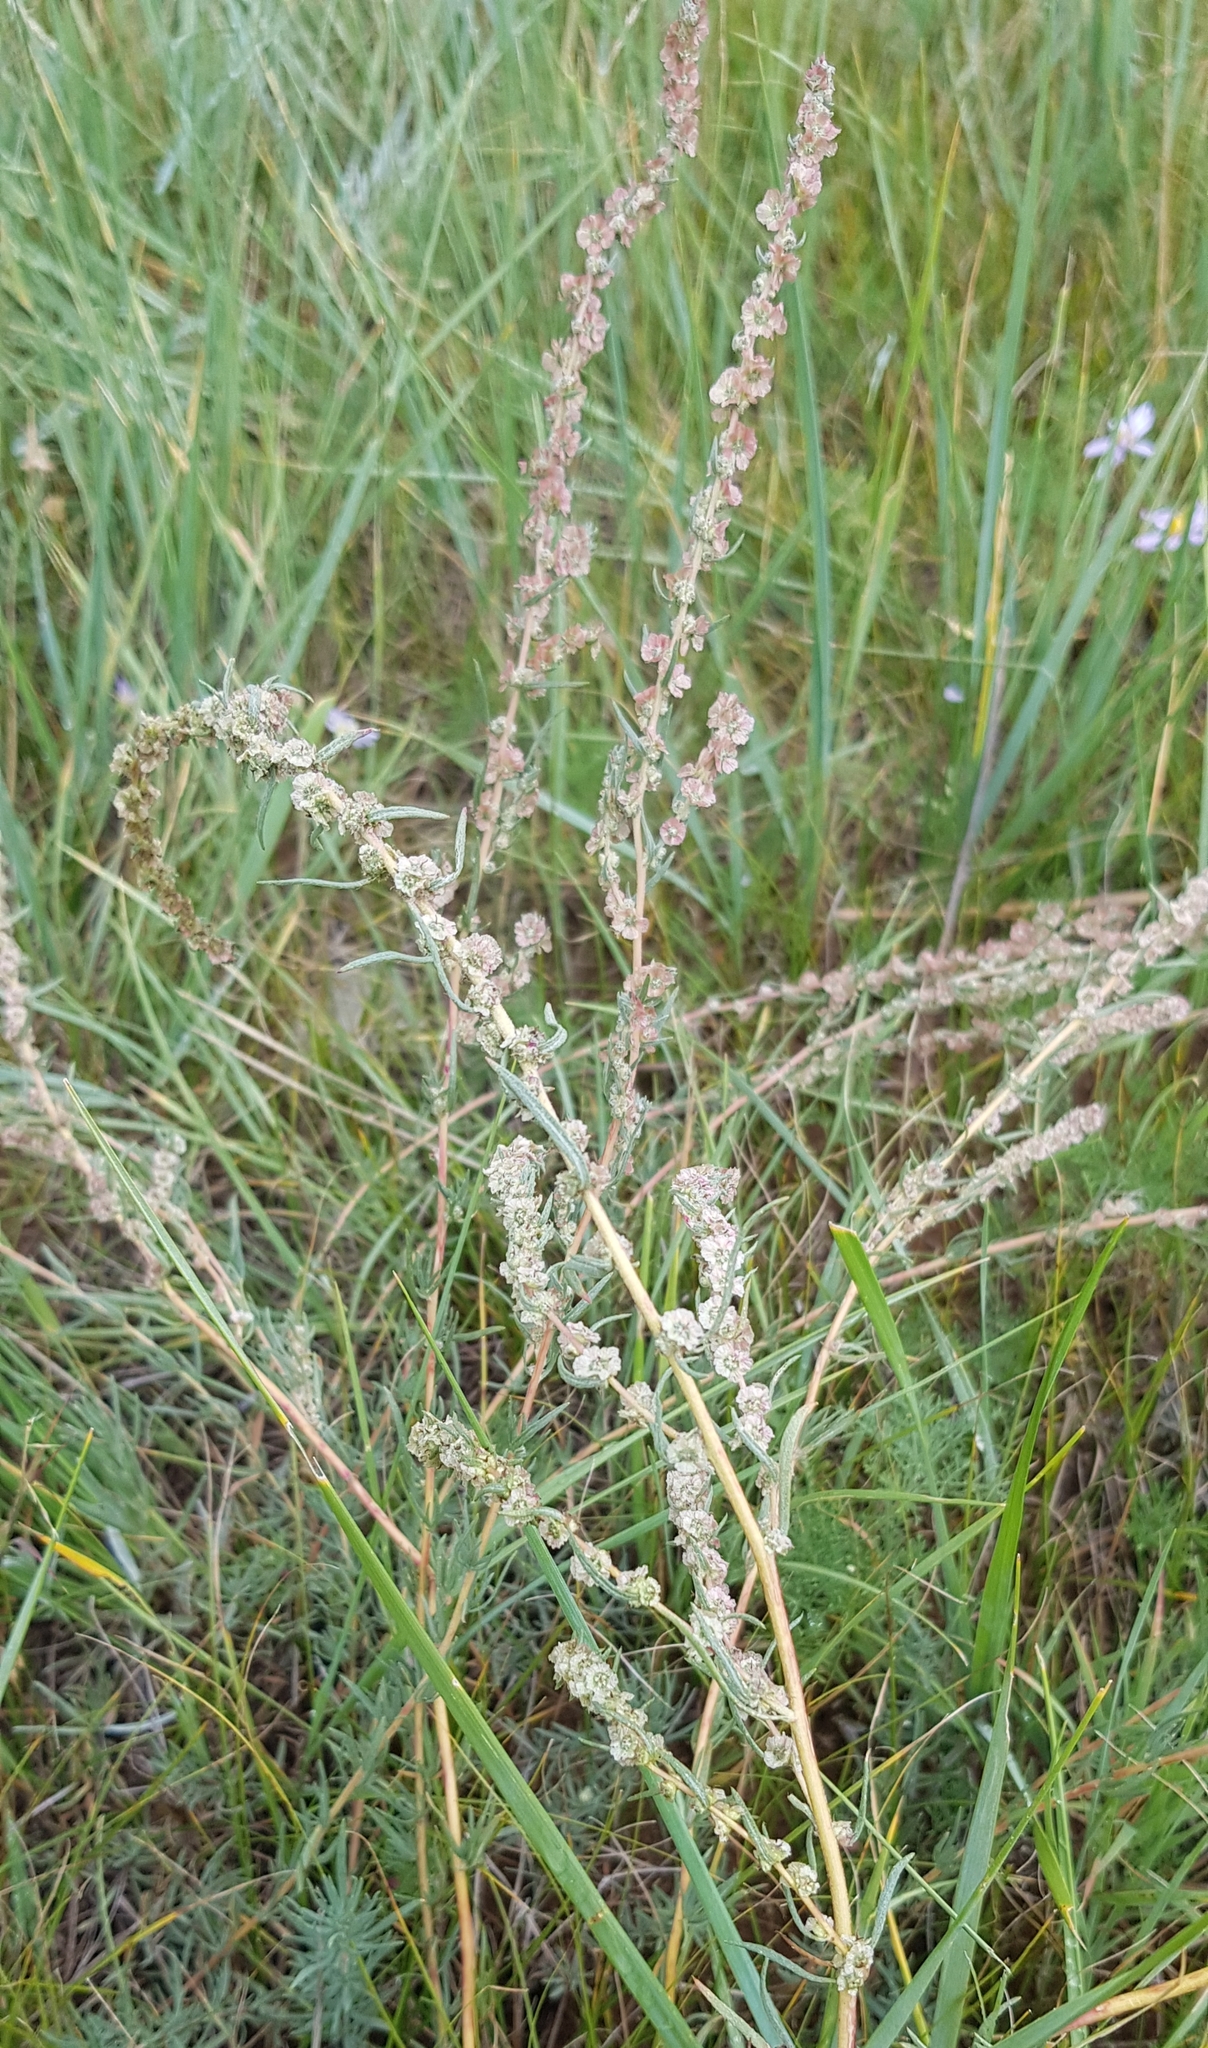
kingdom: Plantae
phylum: Tracheophyta
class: Magnoliopsida
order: Caryophyllales
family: Amaranthaceae
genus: Bassia
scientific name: Bassia prostrata
